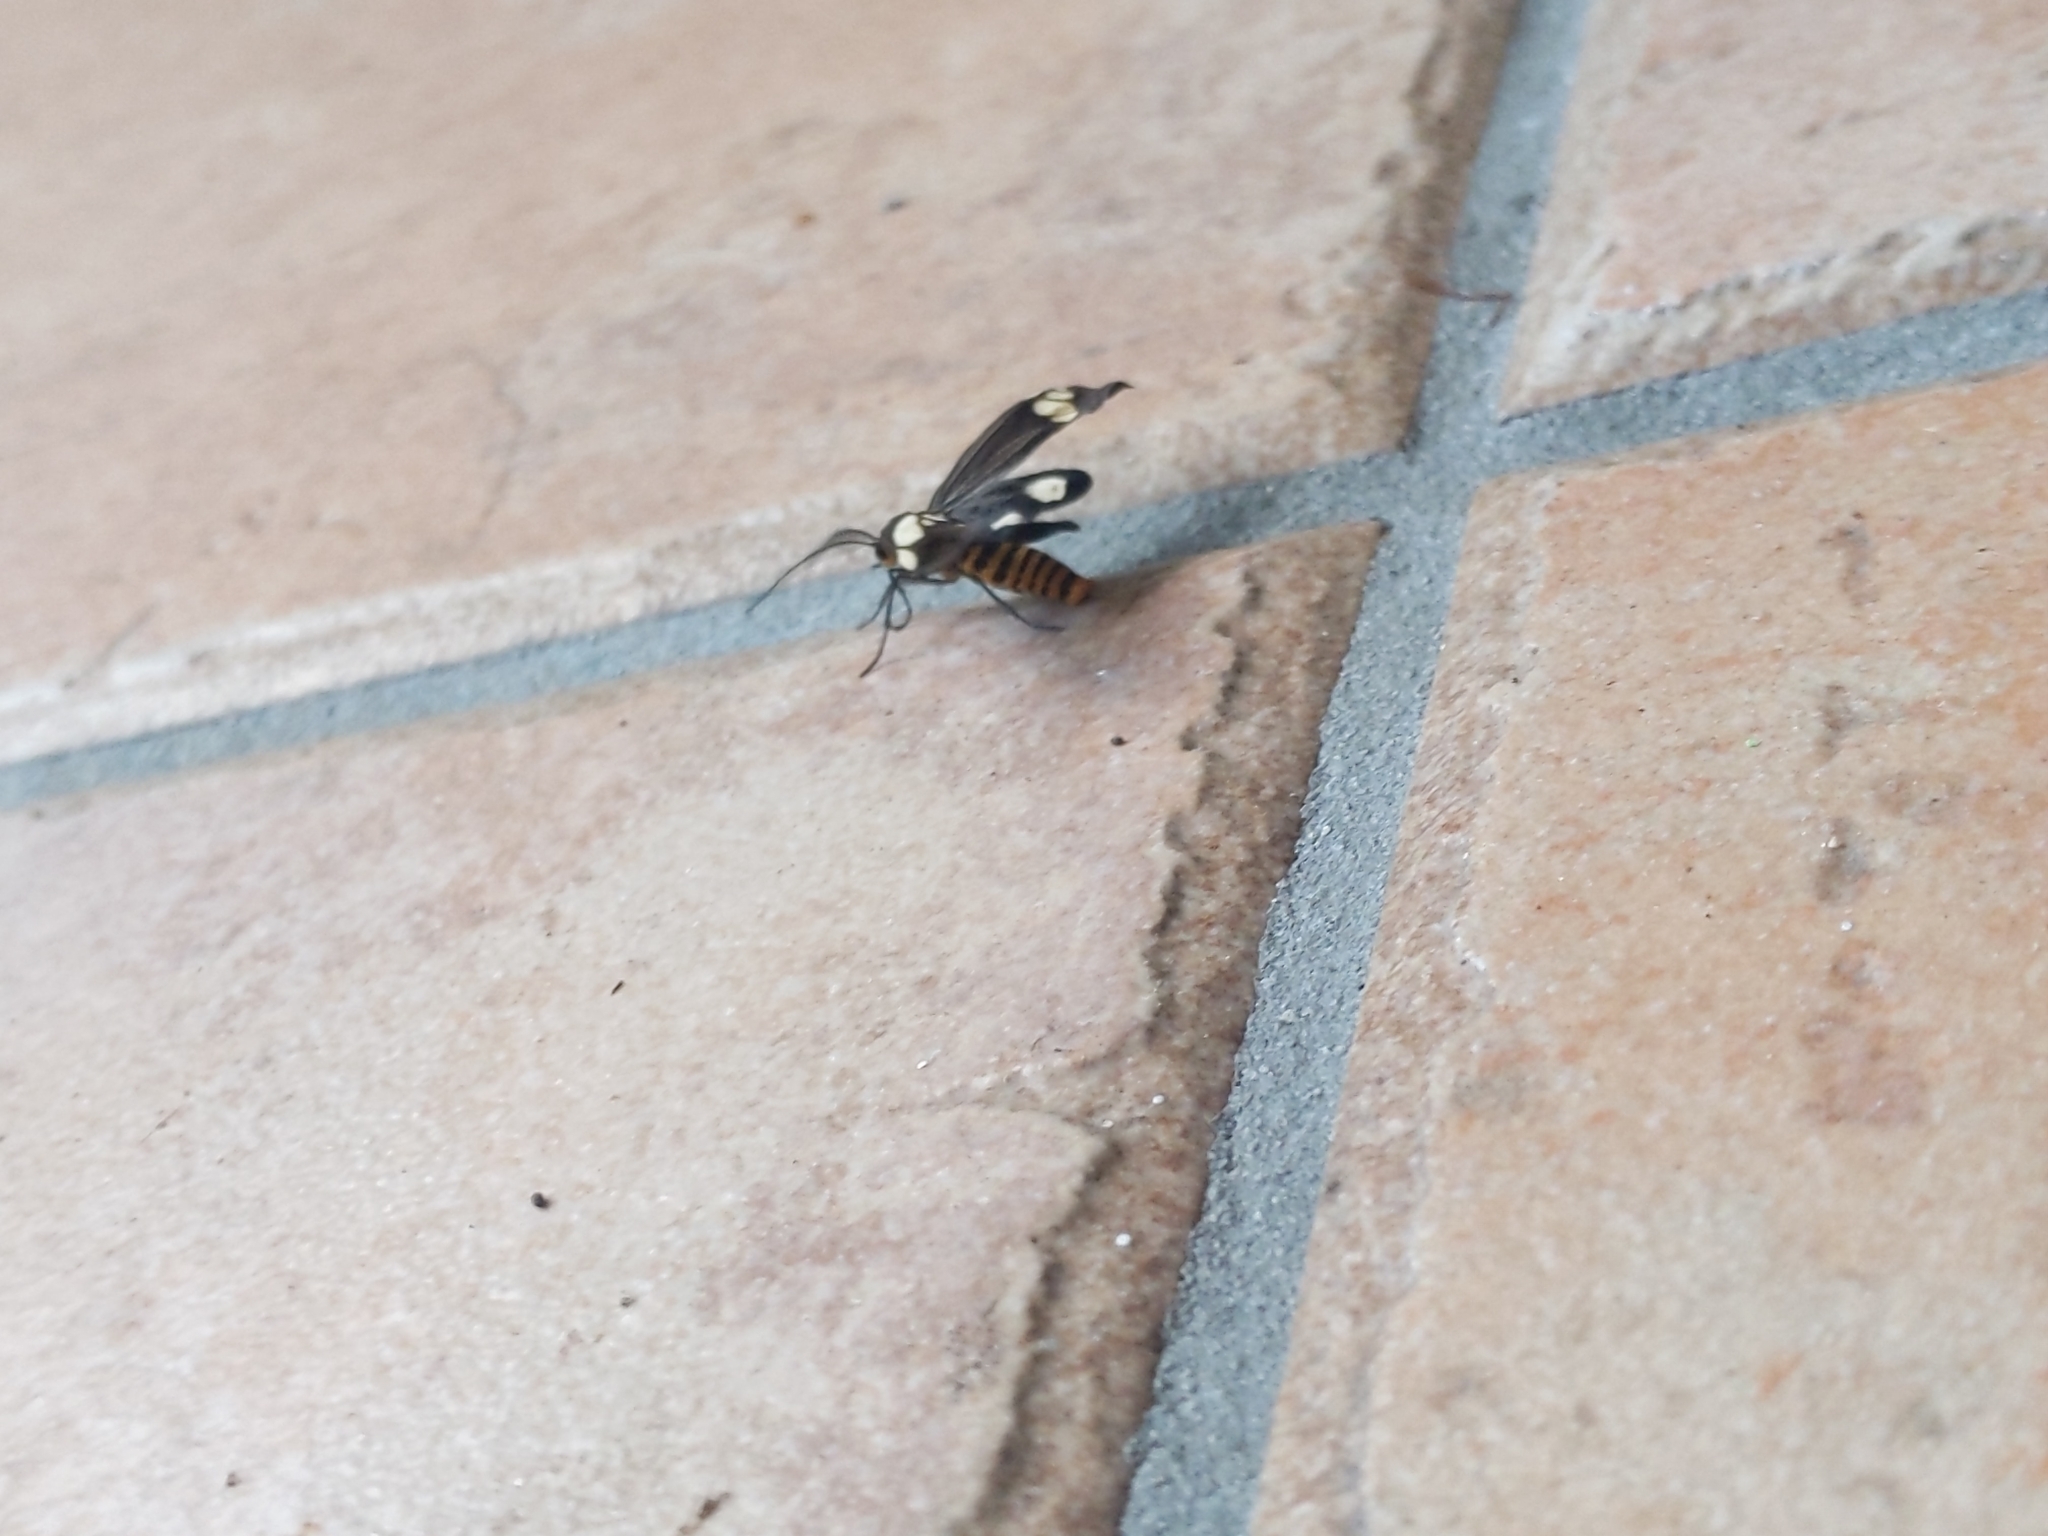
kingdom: Animalia
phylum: Arthropoda
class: Insecta
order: Lepidoptera
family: Erebidae
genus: Nyctemera
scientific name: Nyctemera baulus
